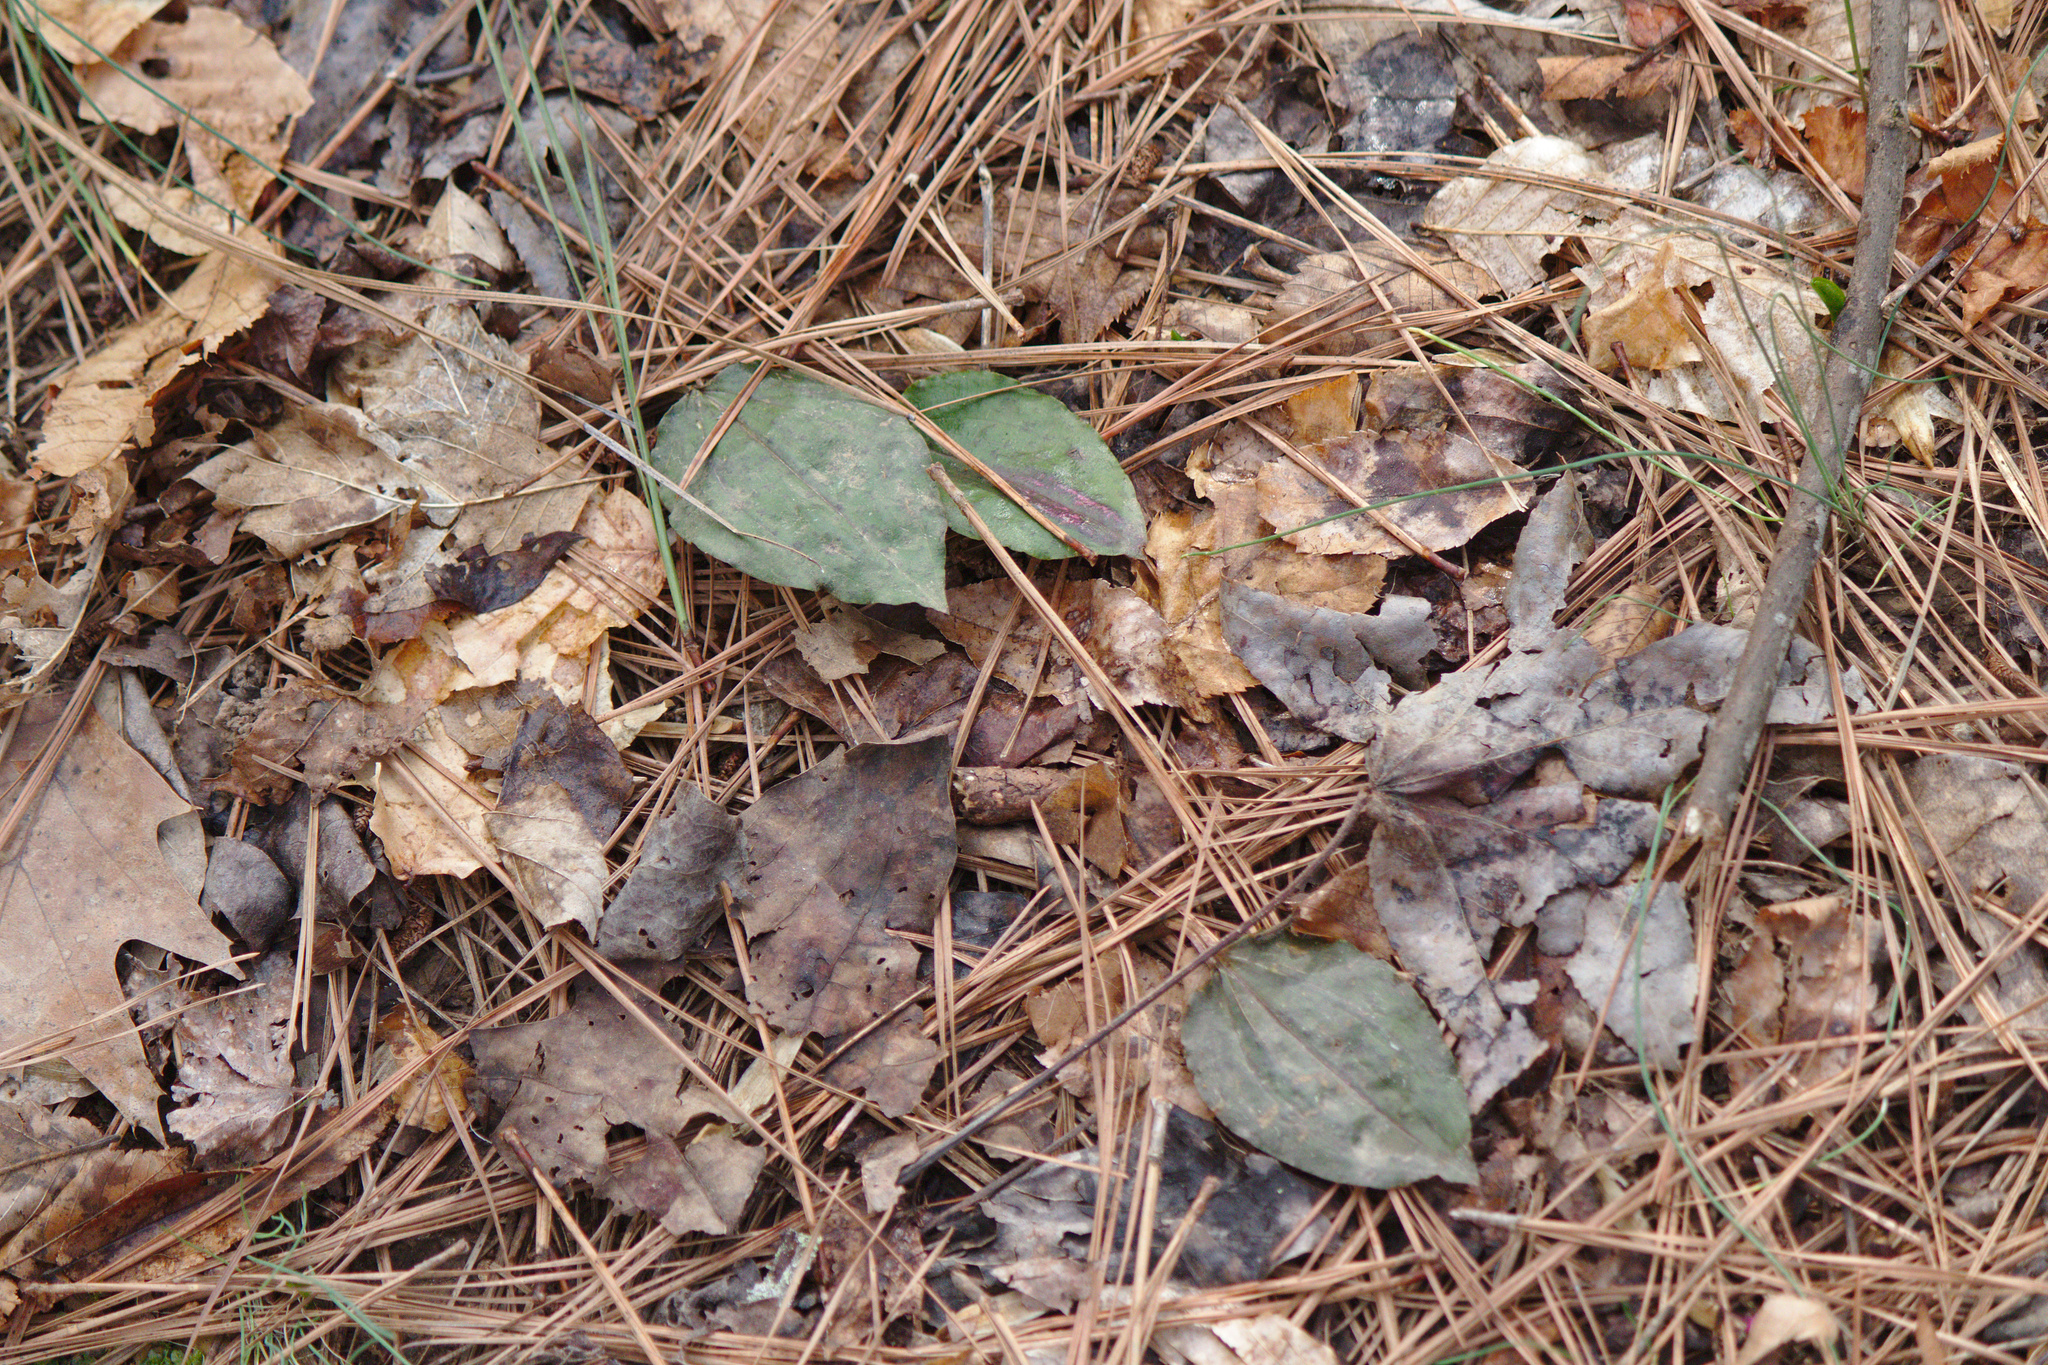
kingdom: Plantae
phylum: Tracheophyta
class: Liliopsida
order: Asparagales
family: Orchidaceae
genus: Tipularia
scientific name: Tipularia discolor
